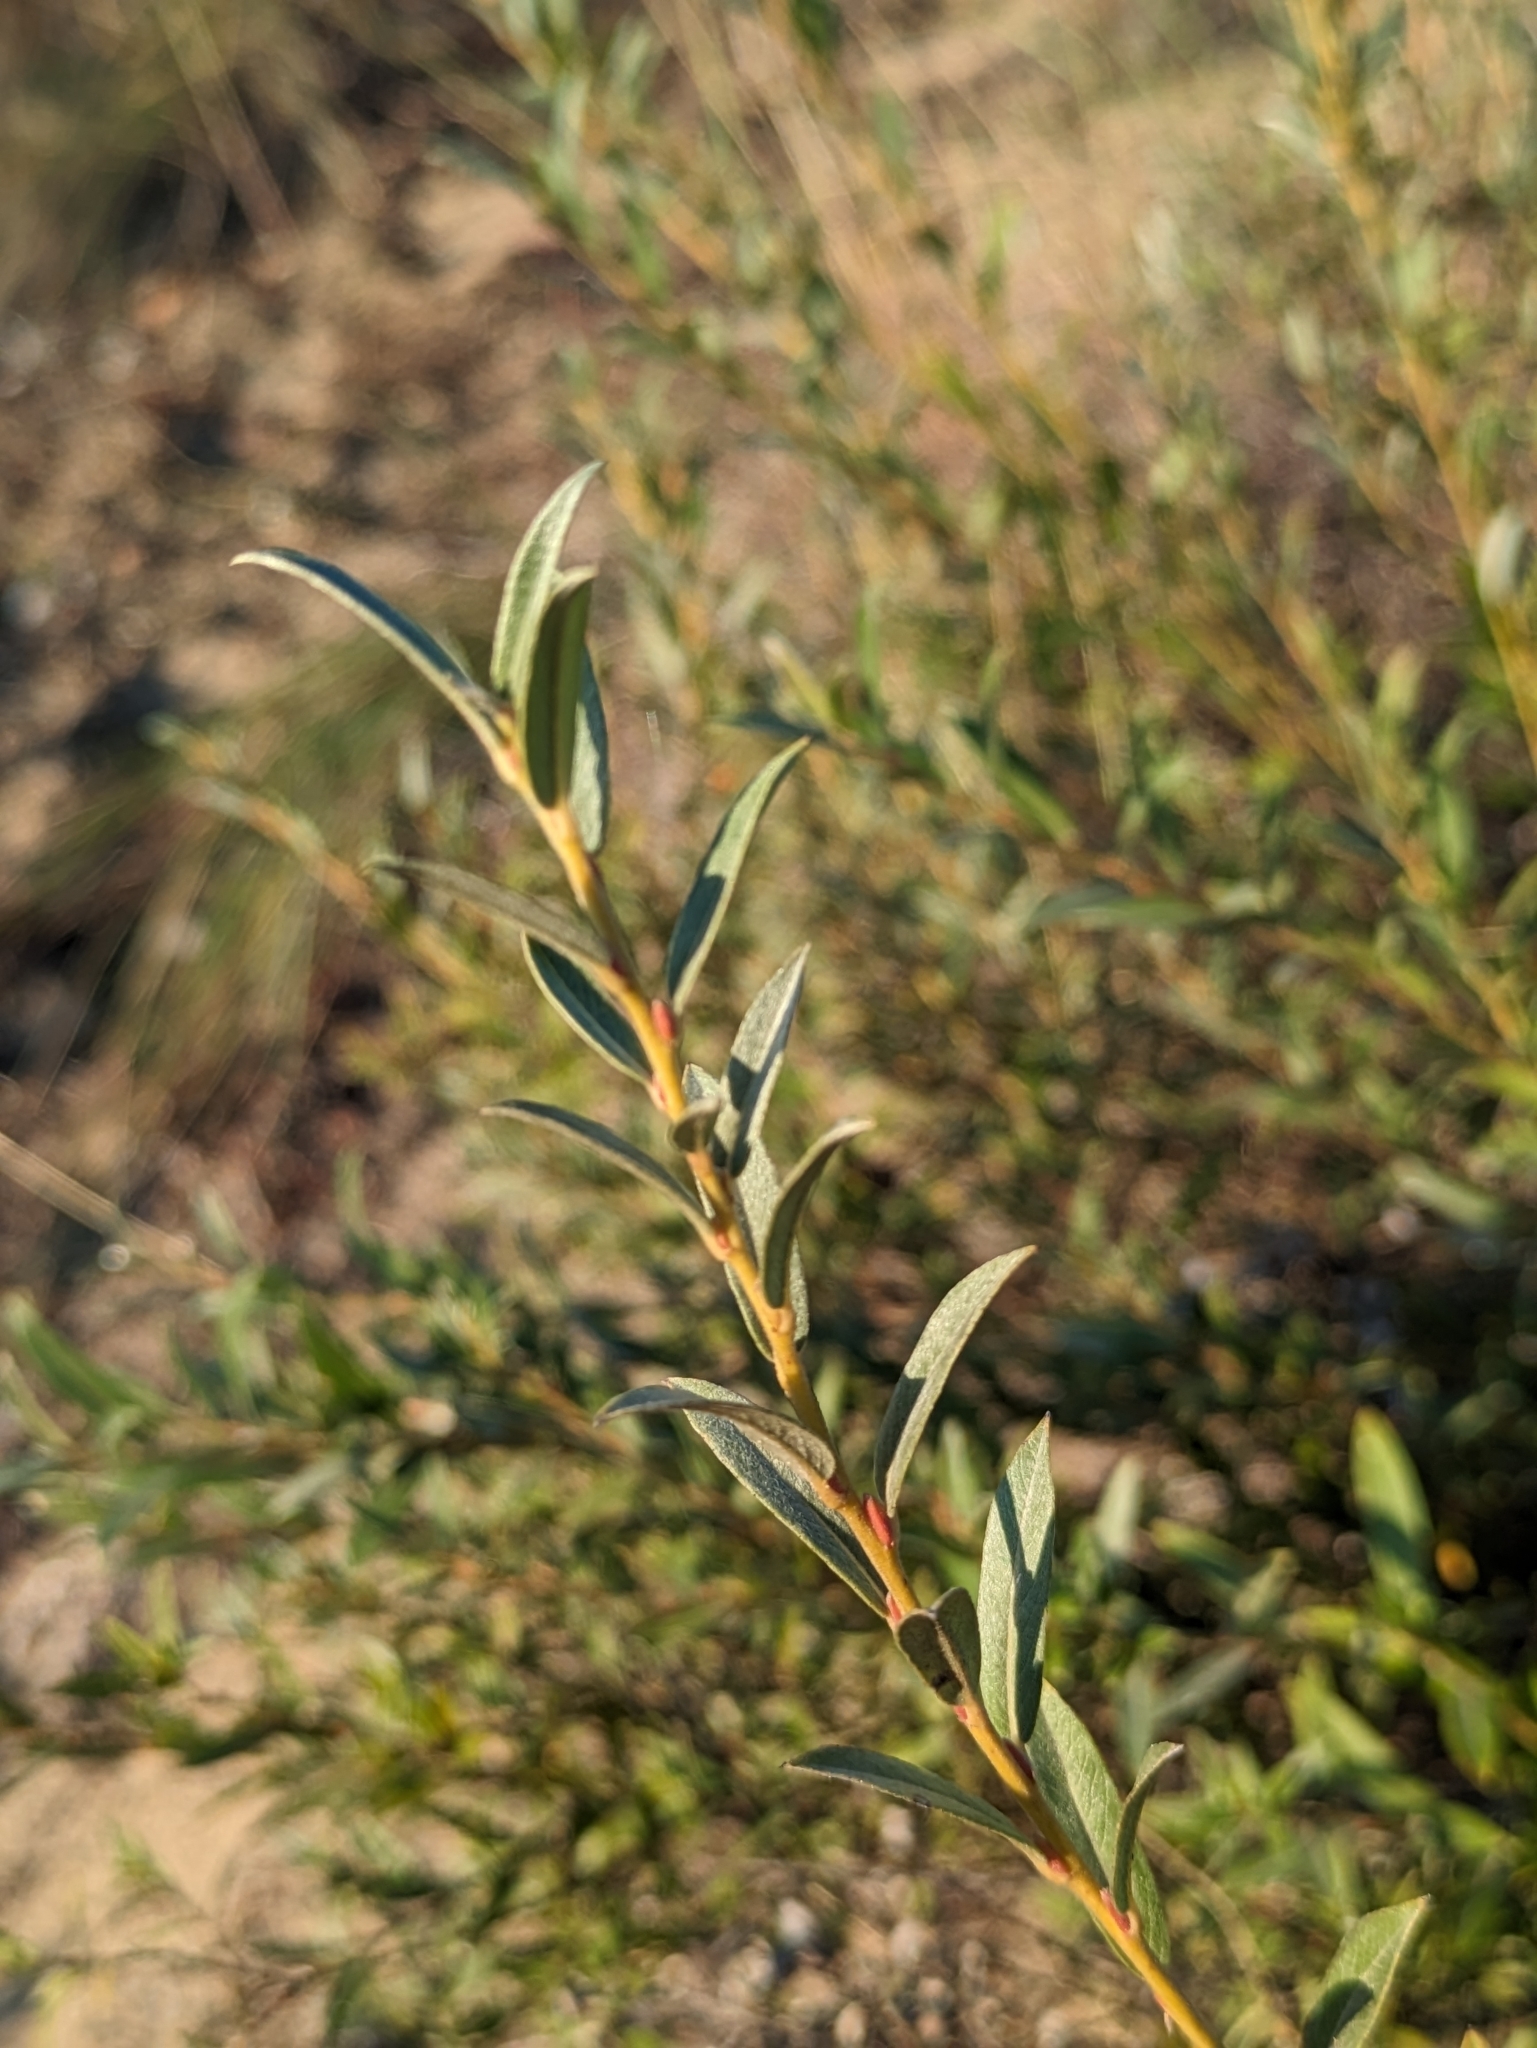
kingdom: Plantae
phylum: Tracheophyta
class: Magnoliopsida
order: Malpighiales
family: Salicaceae
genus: Salix
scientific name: Salix rosmarinifolia
